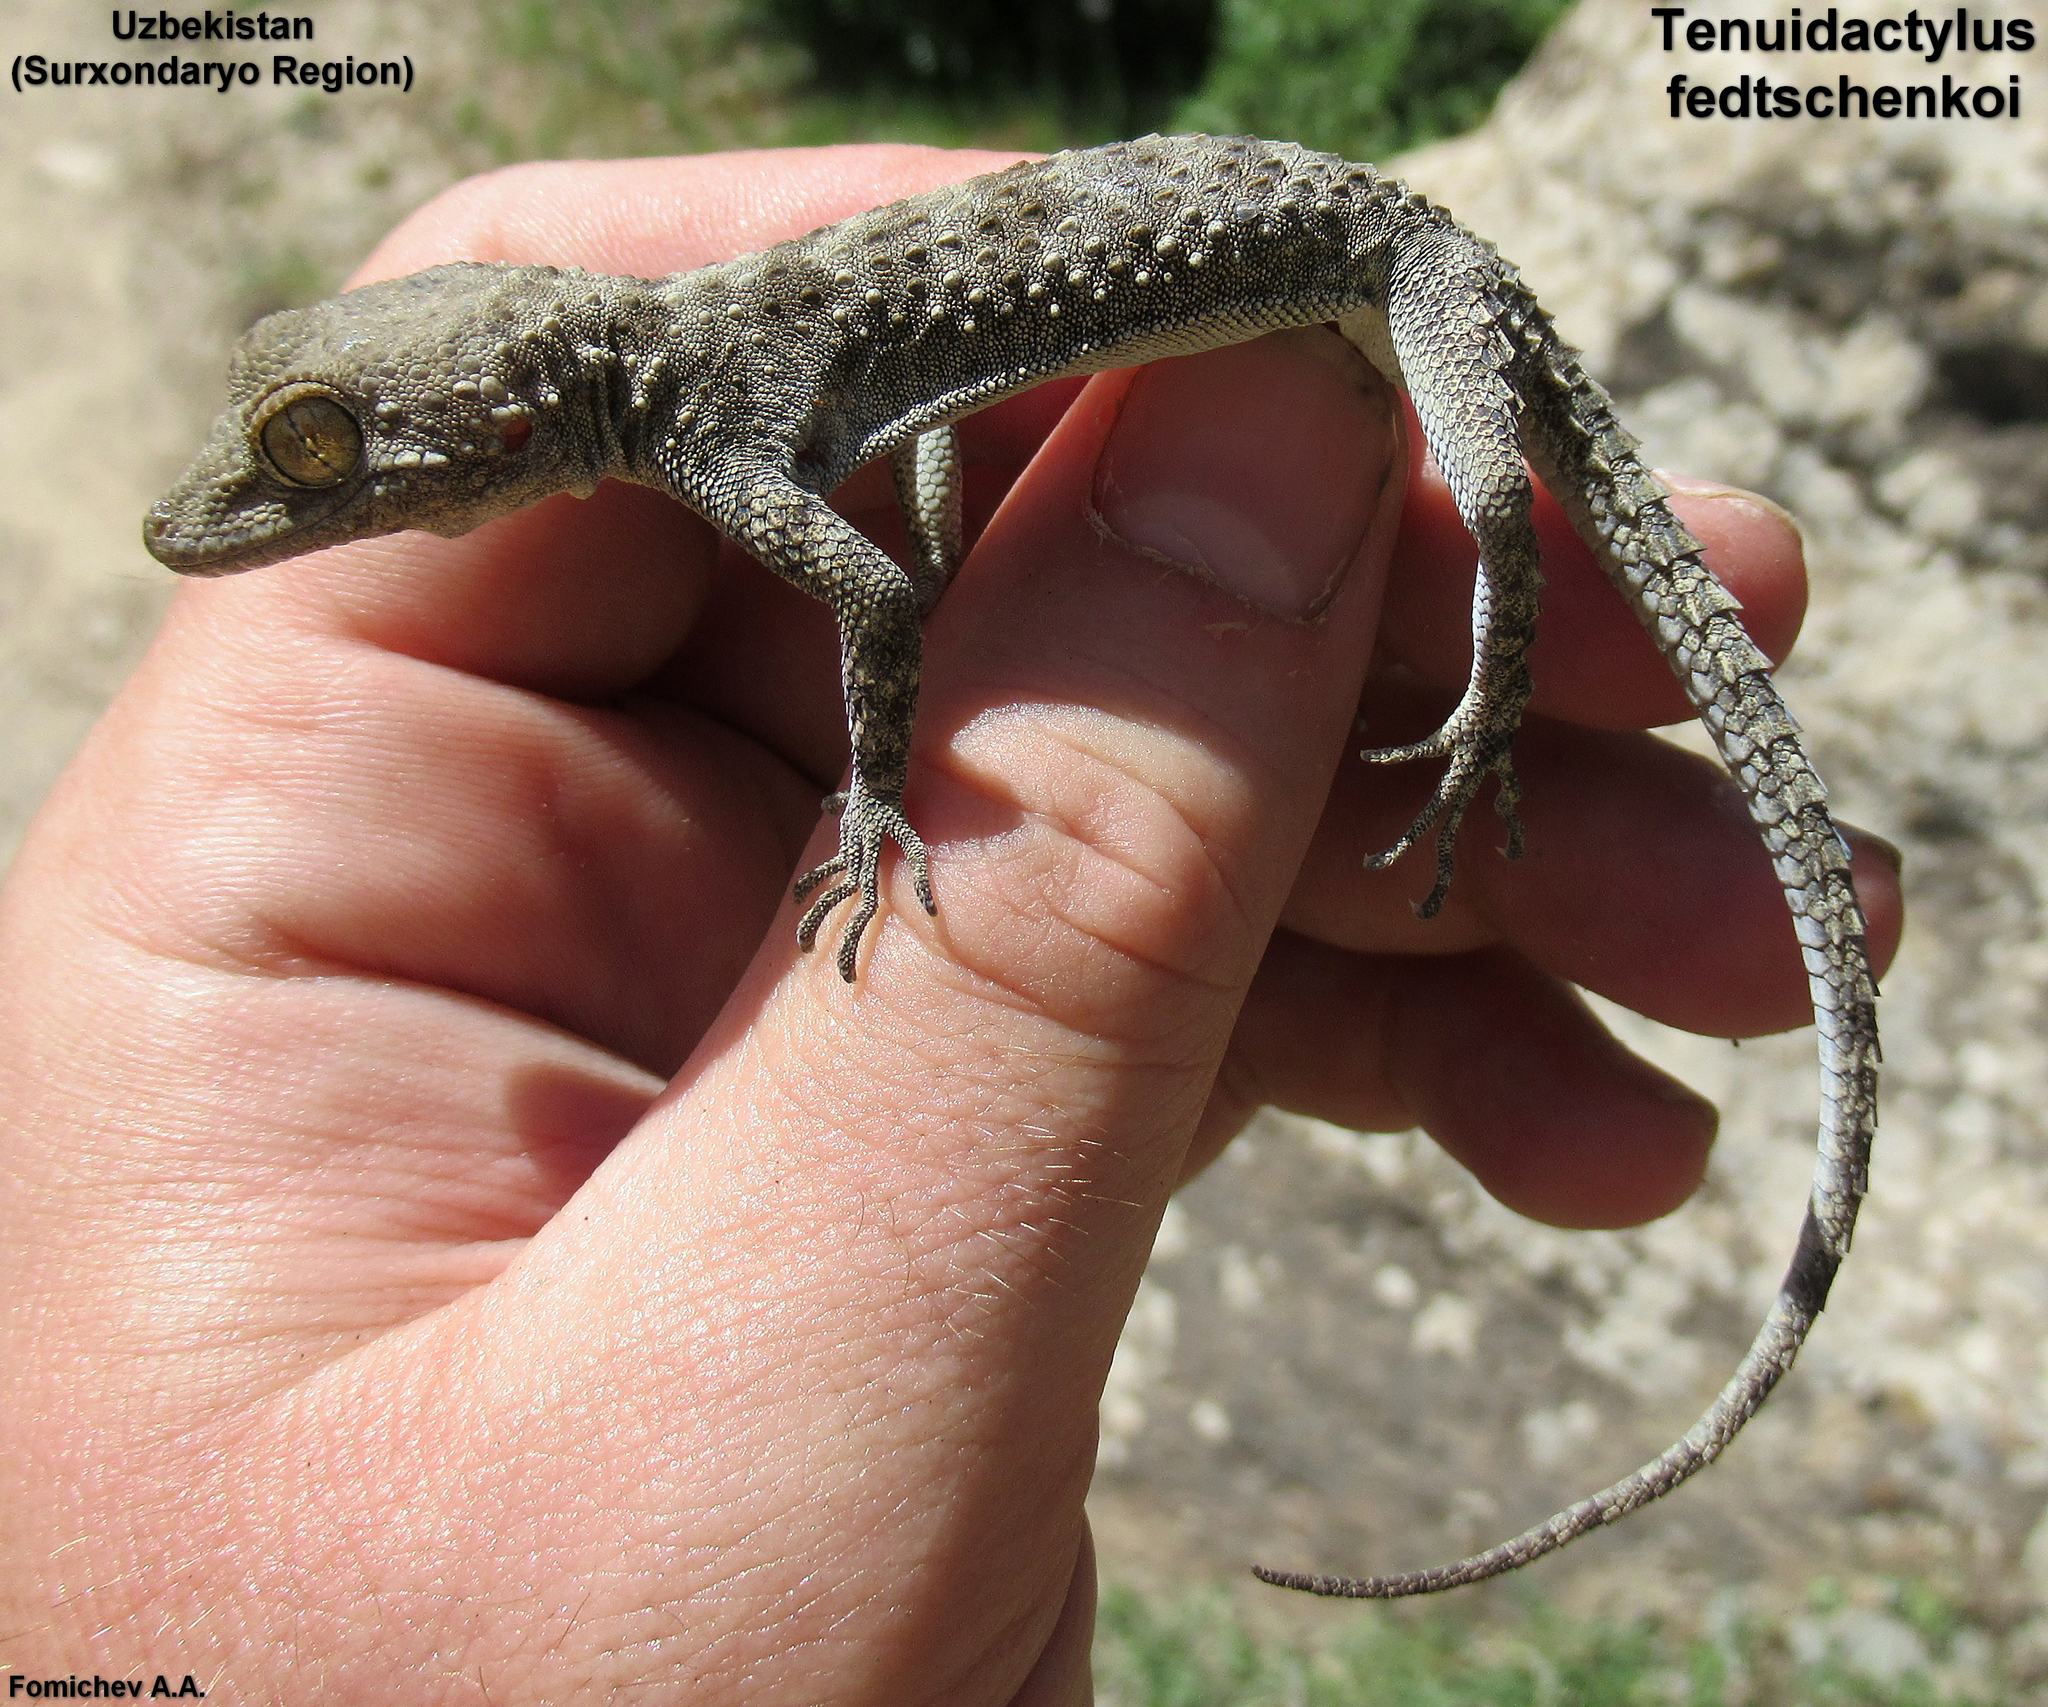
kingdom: Animalia
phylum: Chordata
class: Squamata
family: Gekkonidae
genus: Tenuidactylus
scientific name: Tenuidactylus fedtschenkoi
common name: Turkestan thin-toed gecko
